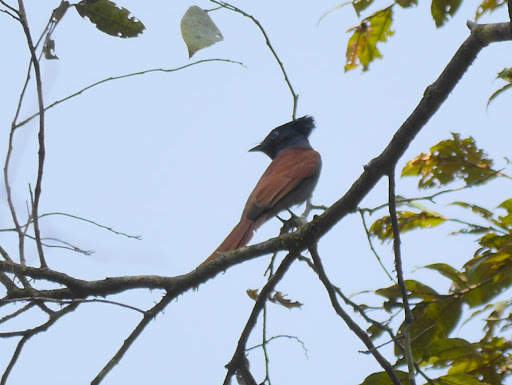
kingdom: Animalia
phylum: Chordata
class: Aves
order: Passeriformes
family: Monarchidae
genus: Terpsiphone
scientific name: Terpsiphone viridis
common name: African paradise flycatcher
